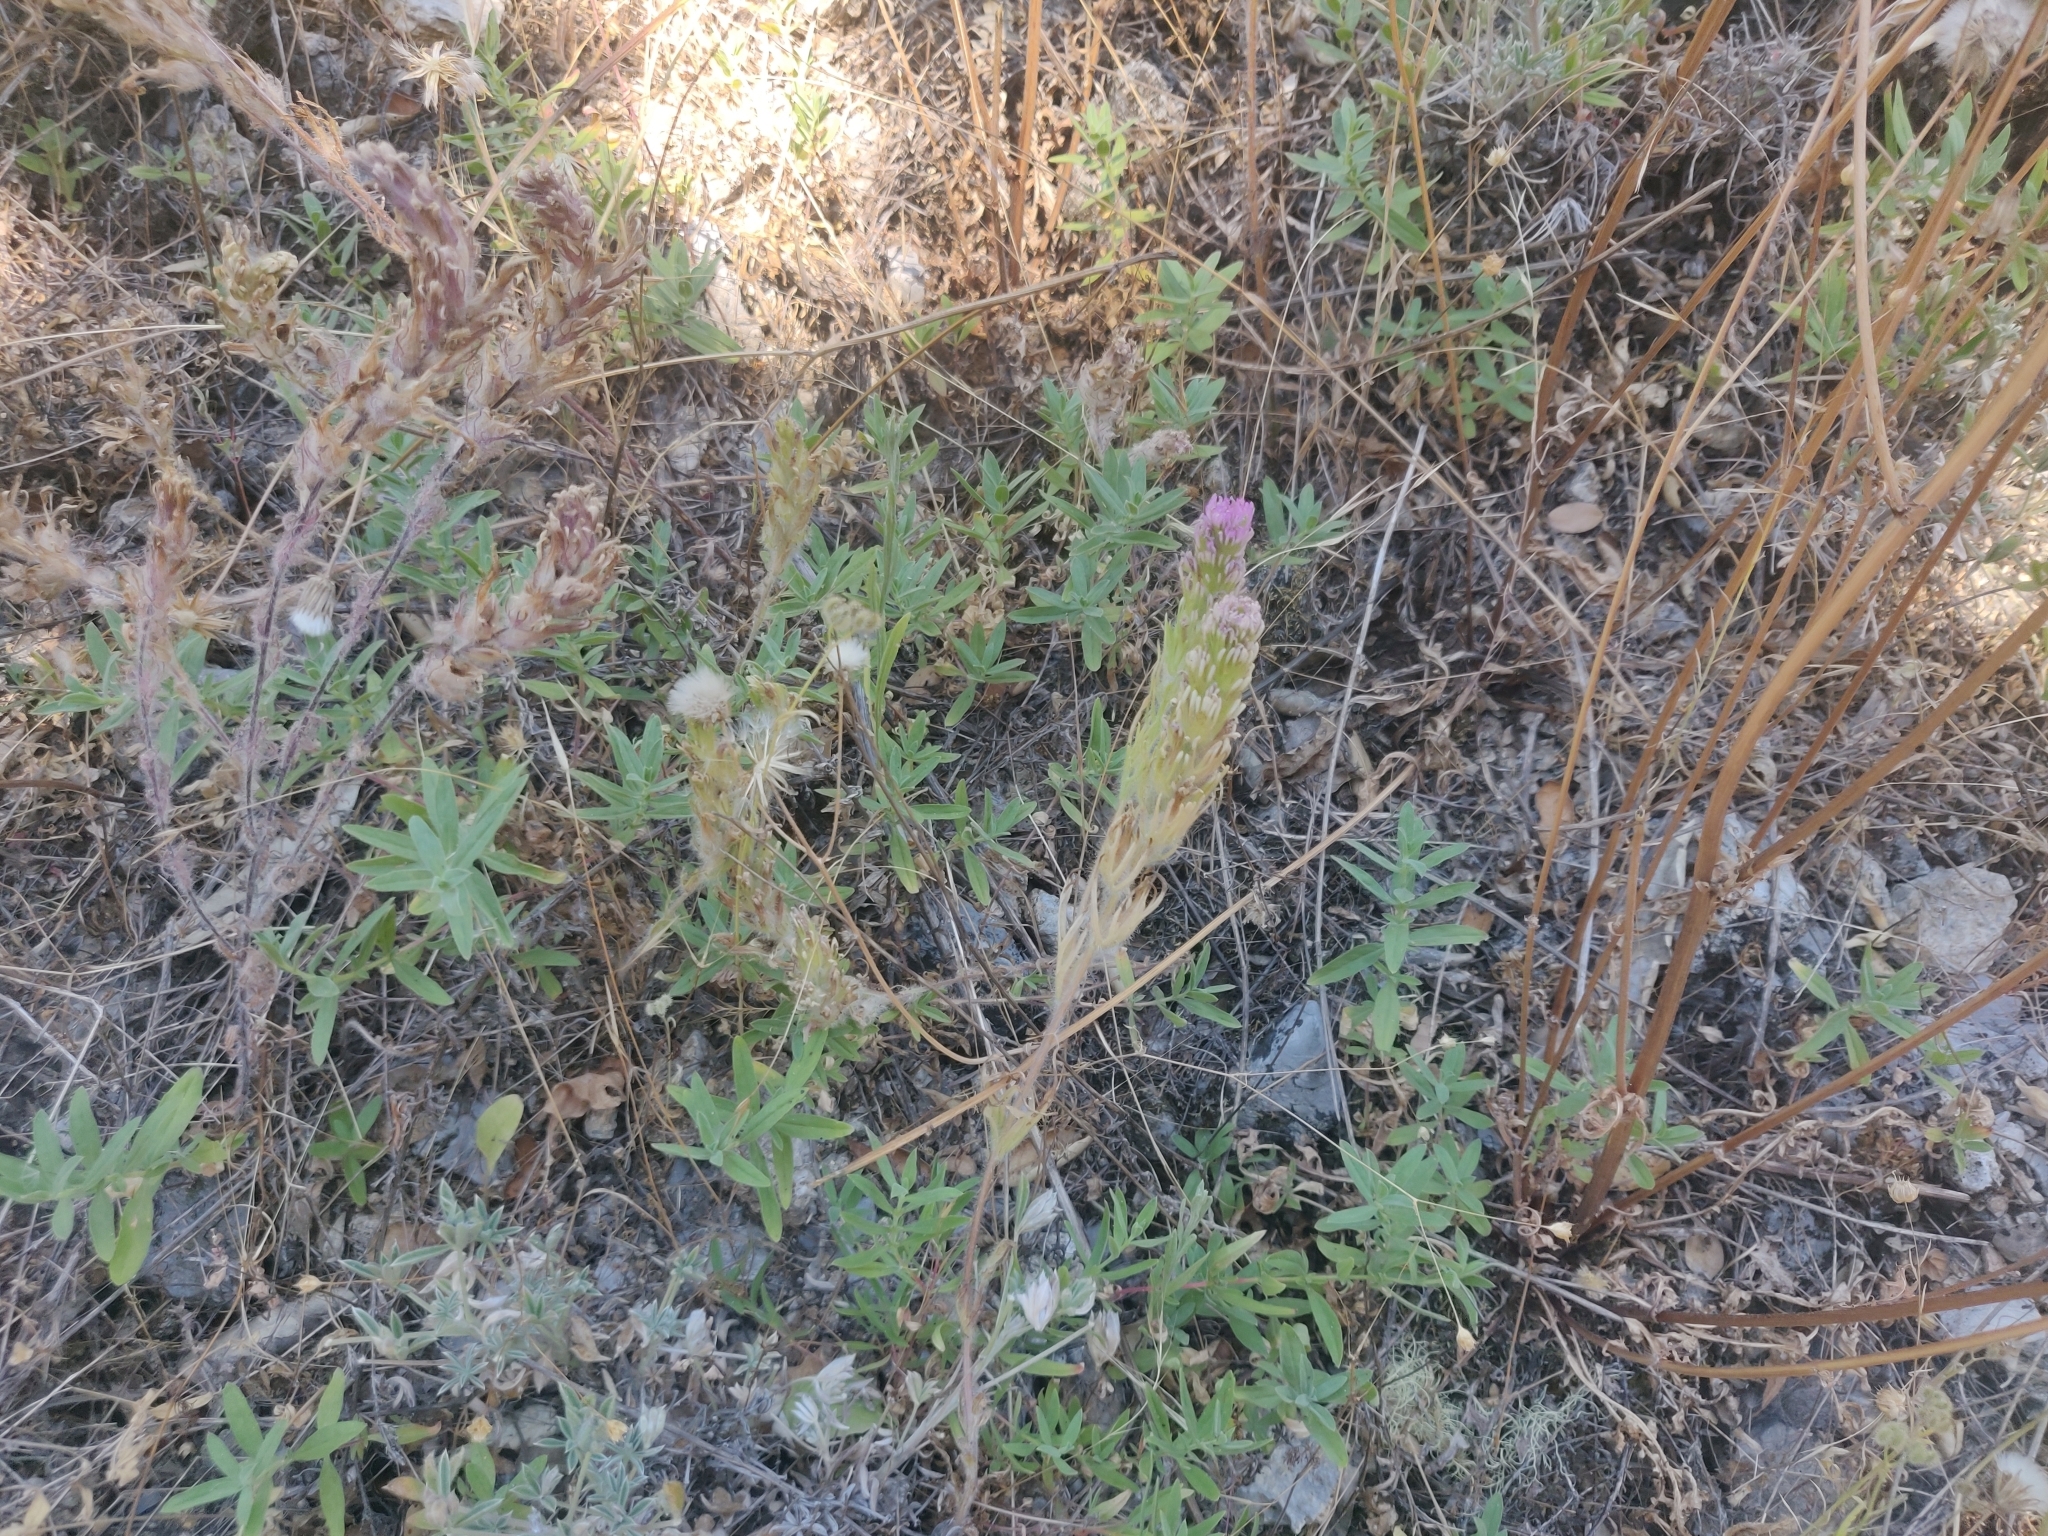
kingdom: Plantae
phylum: Tracheophyta
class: Magnoliopsida
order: Lamiales
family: Orobanchaceae
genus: Castilleja
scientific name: Castilleja exserta
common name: Purple owl-clover
